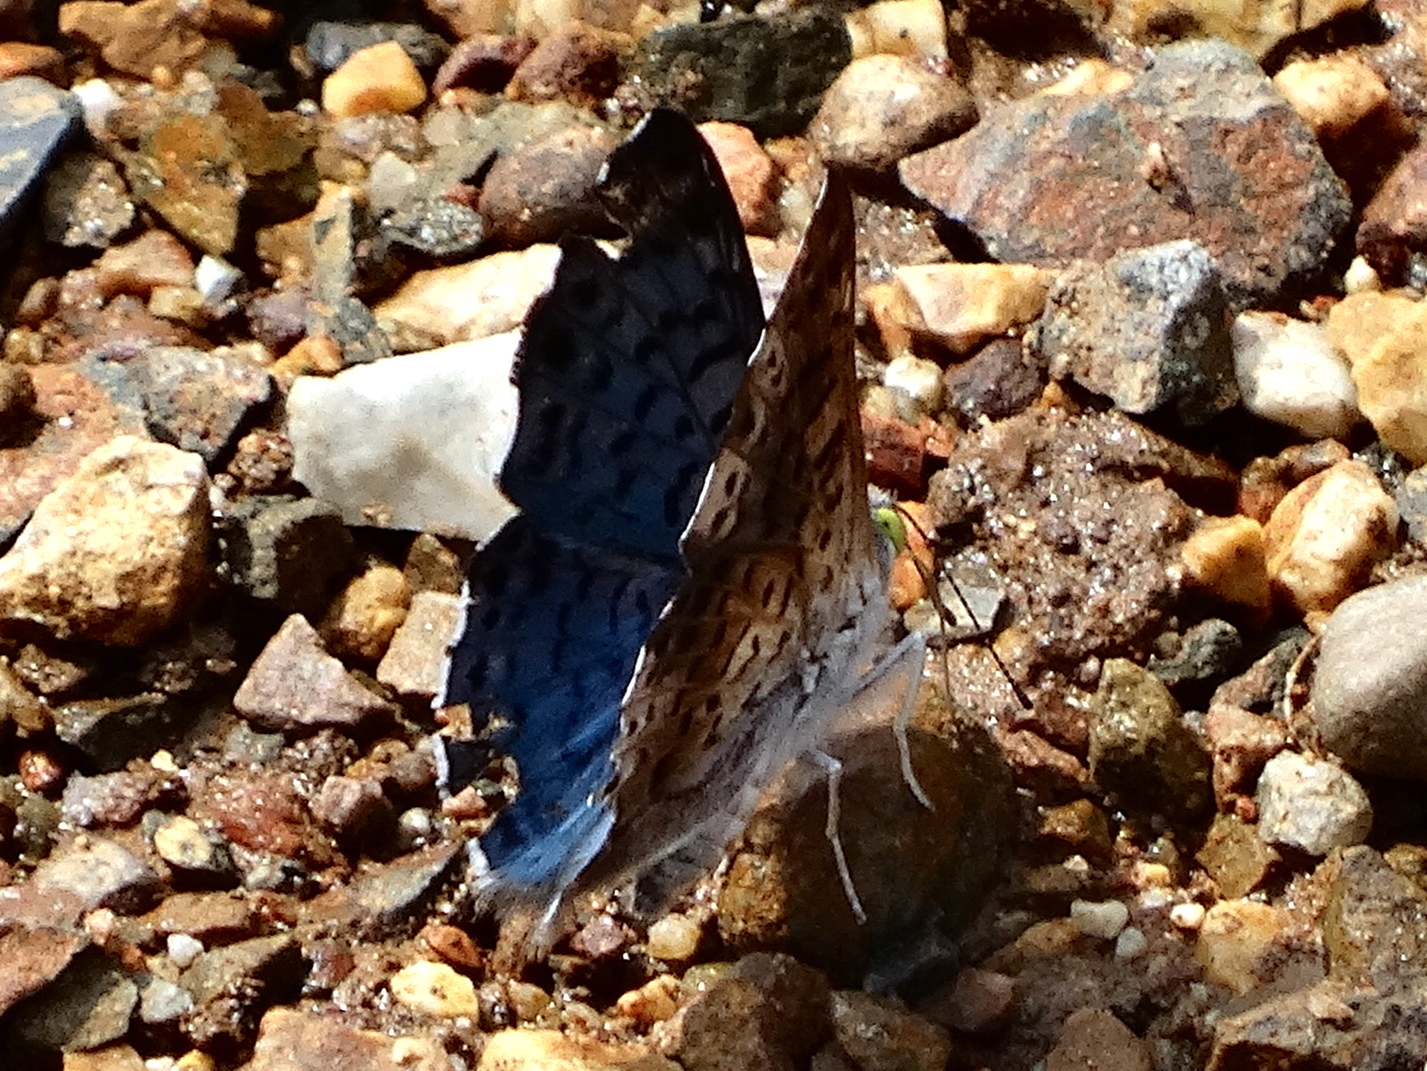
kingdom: Animalia
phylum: Arthropoda
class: Insecta
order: Lepidoptera
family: Riodinidae
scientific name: Riodinidae
